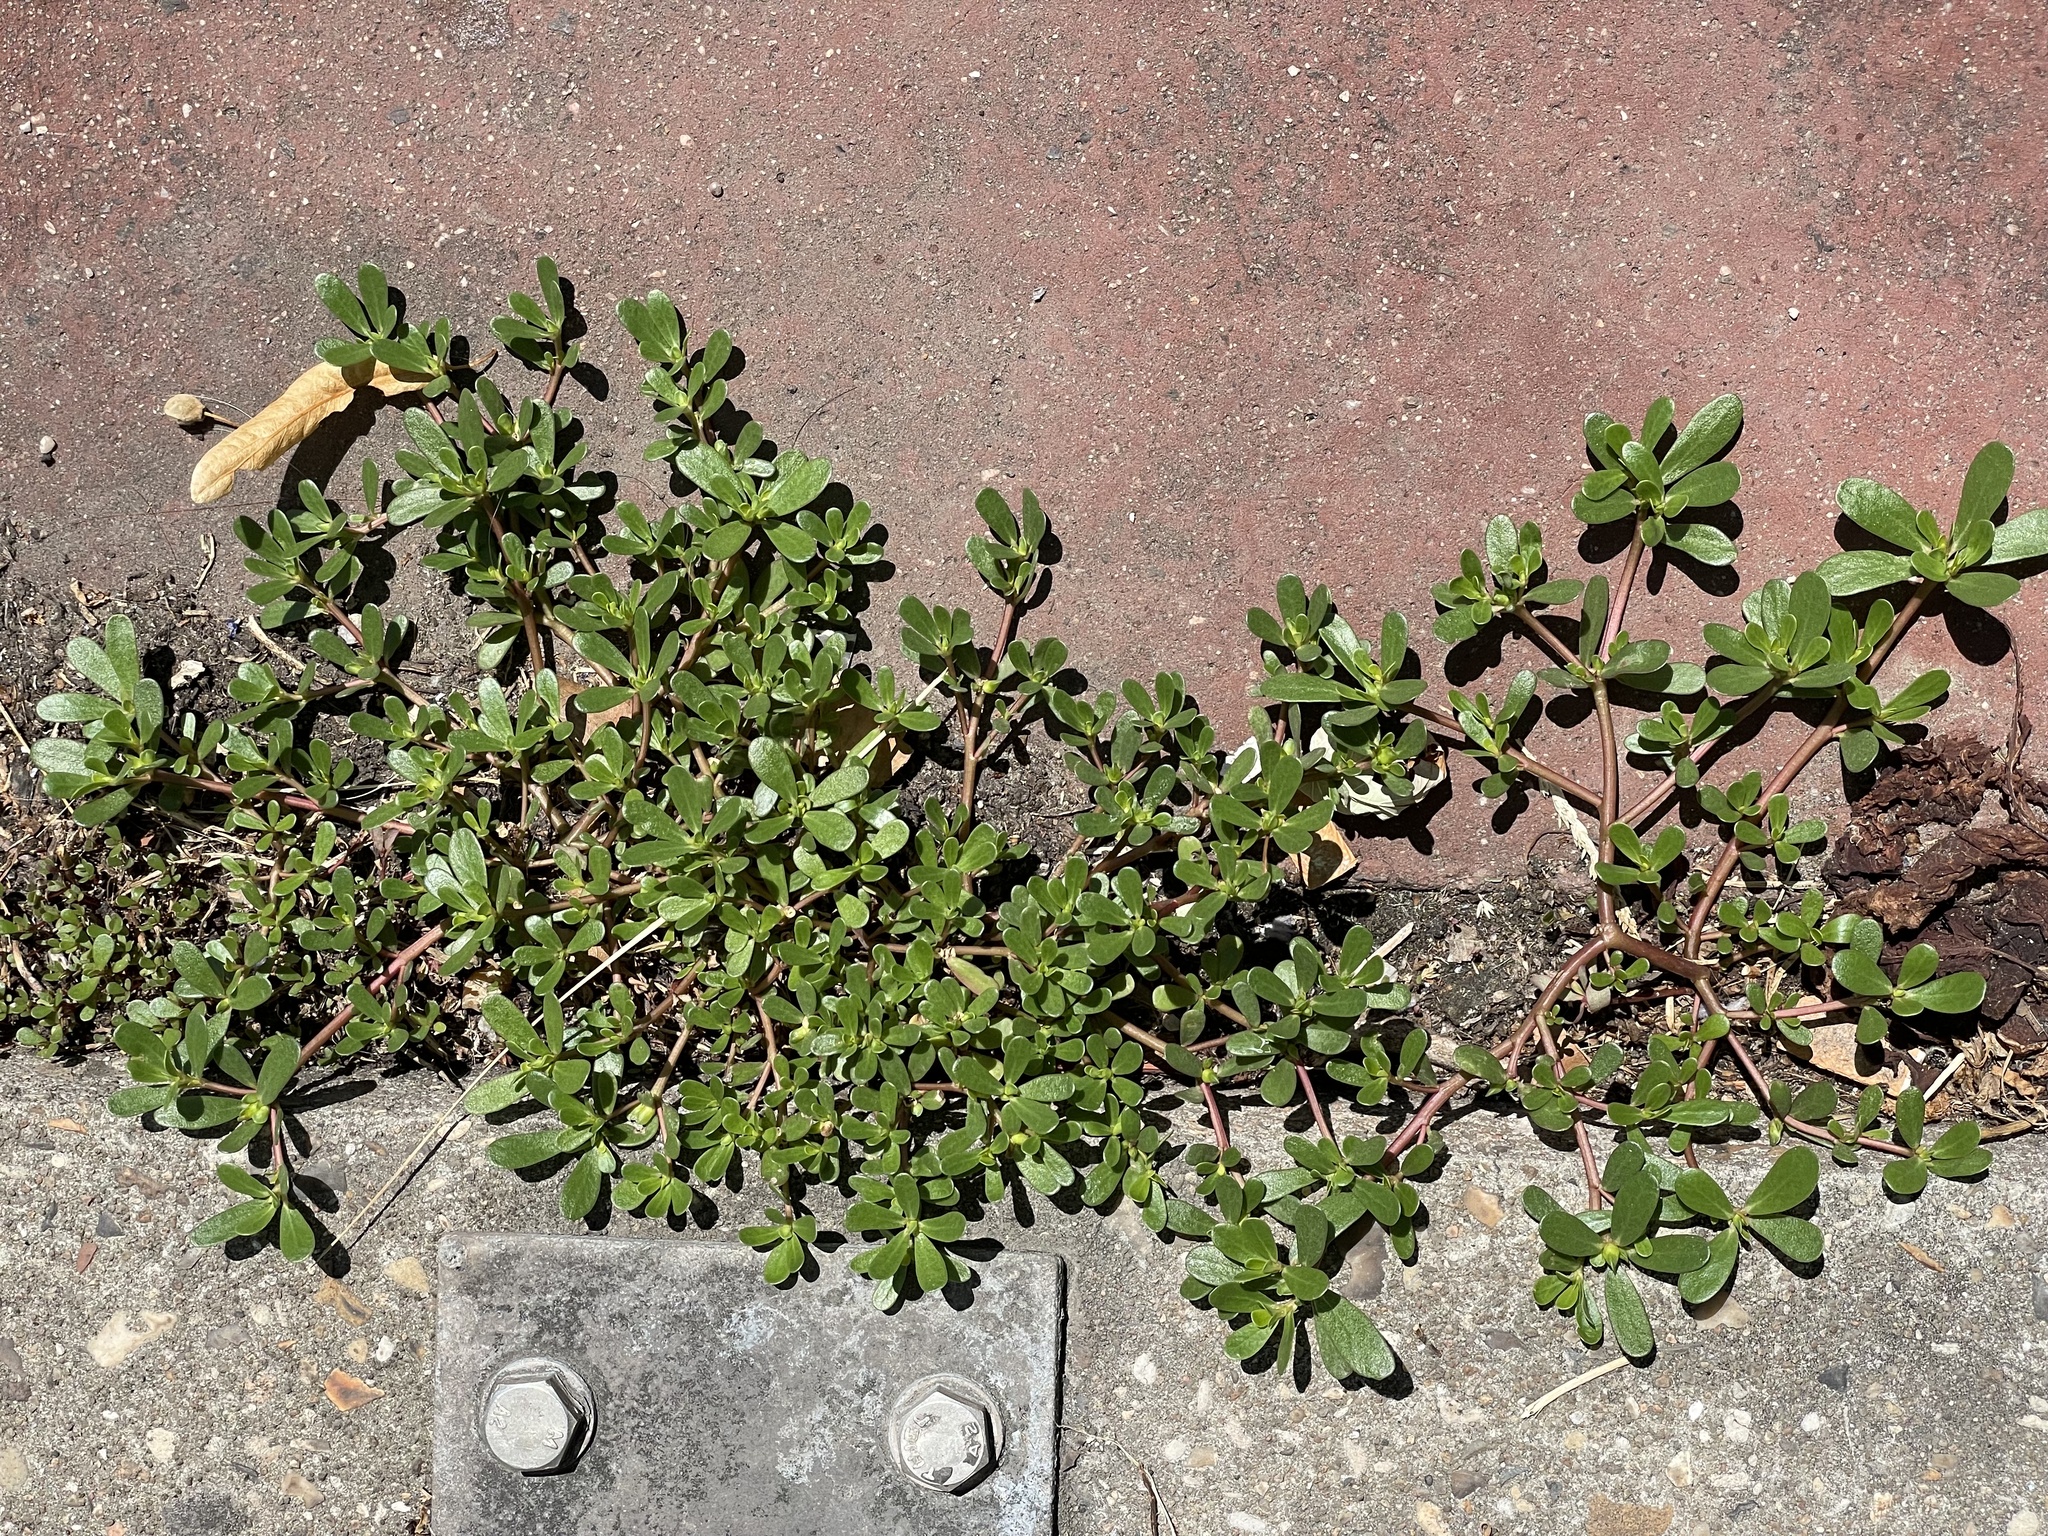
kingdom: Plantae
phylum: Tracheophyta
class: Magnoliopsida
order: Caryophyllales
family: Portulacaceae
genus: Portulaca
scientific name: Portulaca oleracea
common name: Common purslane
